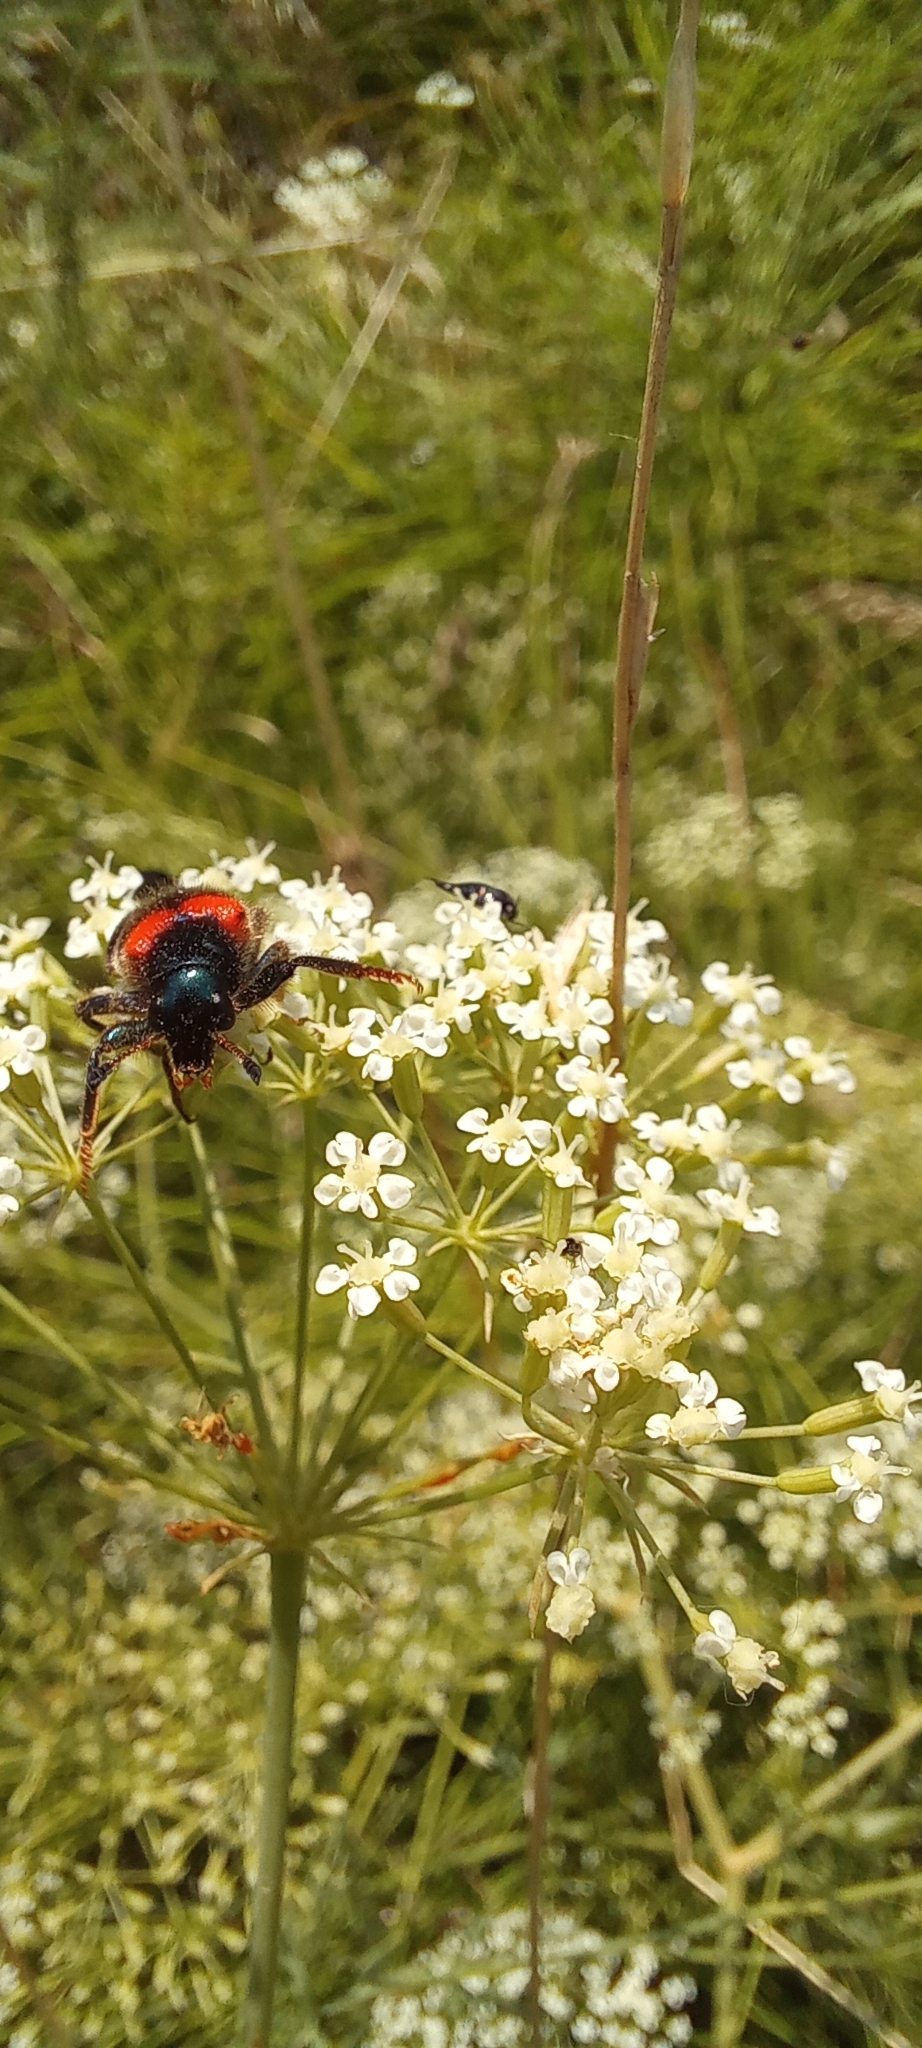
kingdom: Plantae
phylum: Tracheophyta
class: Magnoliopsida
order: Apiales
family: Apiaceae
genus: Falcaria
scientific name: Falcaria vulgaris
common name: Longleaf
